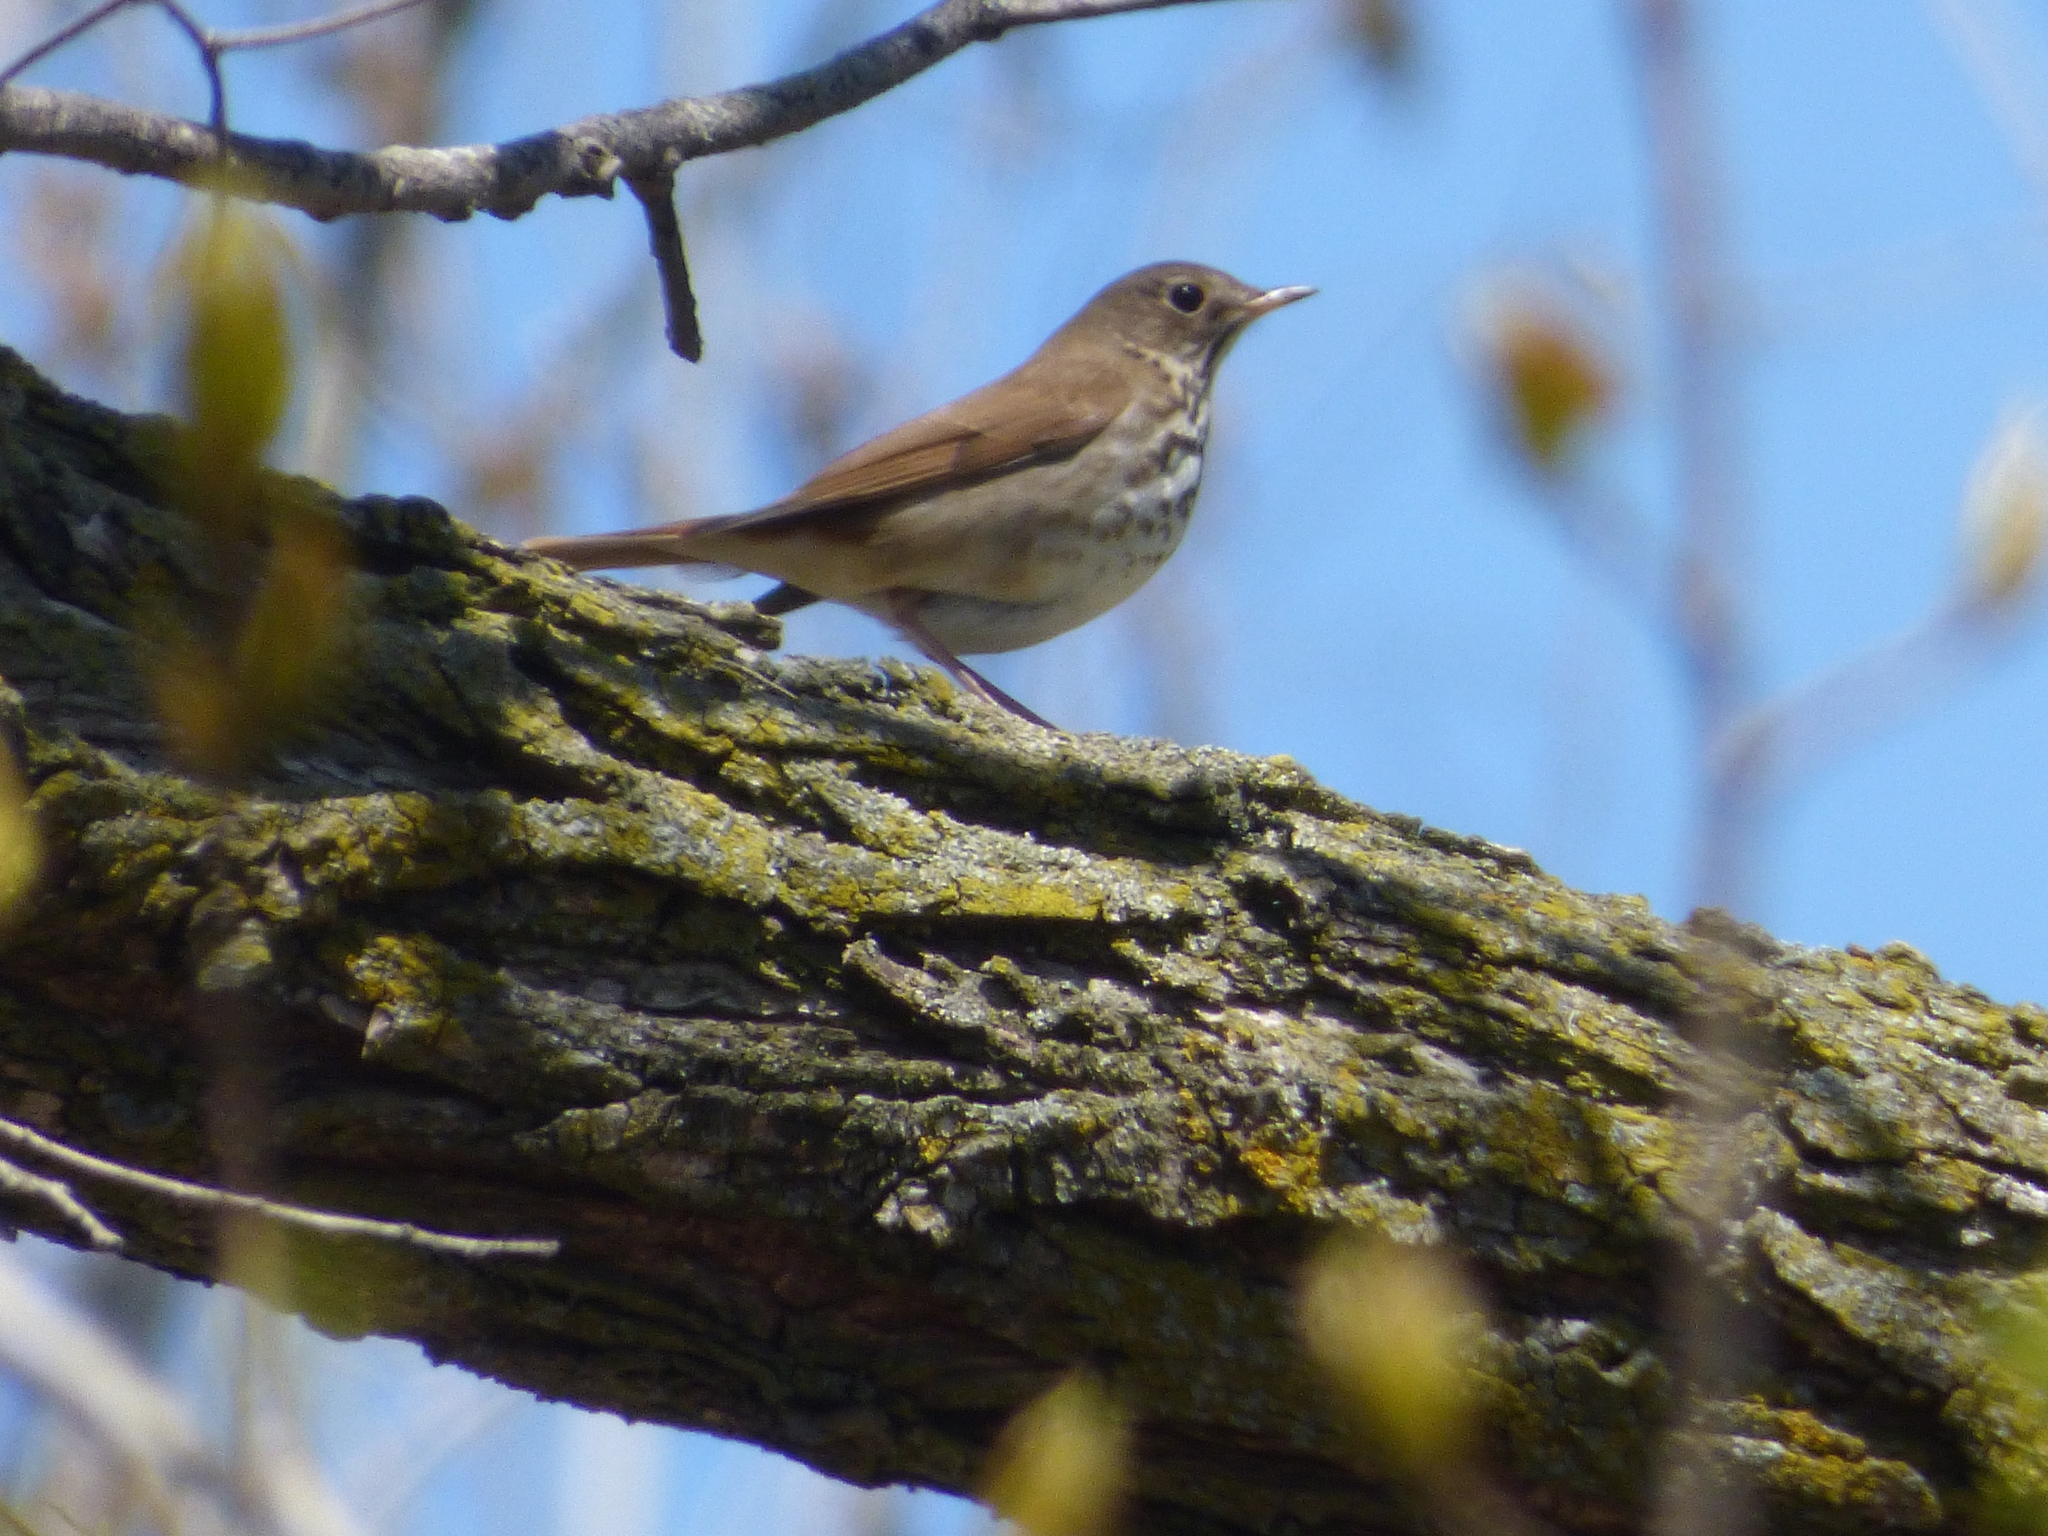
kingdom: Animalia
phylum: Chordata
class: Aves
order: Passeriformes
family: Turdidae
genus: Catharus
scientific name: Catharus guttatus
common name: Hermit thrush
